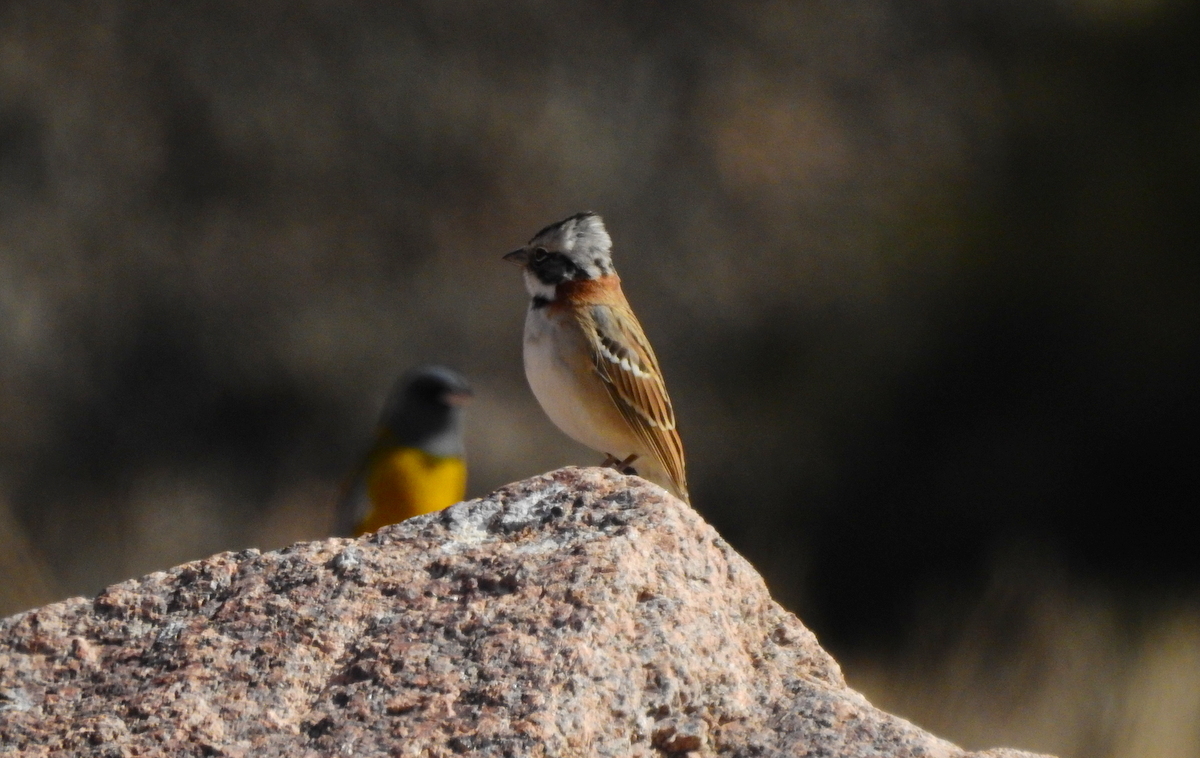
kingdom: Animalia
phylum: Chordata
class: Aves
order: Passeriformes
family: Passerellidae
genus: Zonotrichia
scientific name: Zonotrichia capensis
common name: Rufous-collared sparrow
